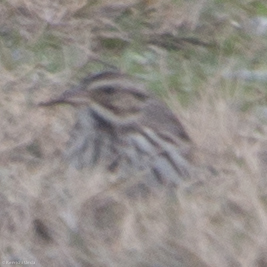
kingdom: Animalia
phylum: Chordata
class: Aves
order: Passeriformes
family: Passerellidae
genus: Passerculus
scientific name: Passerculus sandwichensis
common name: Savannah sparrow
